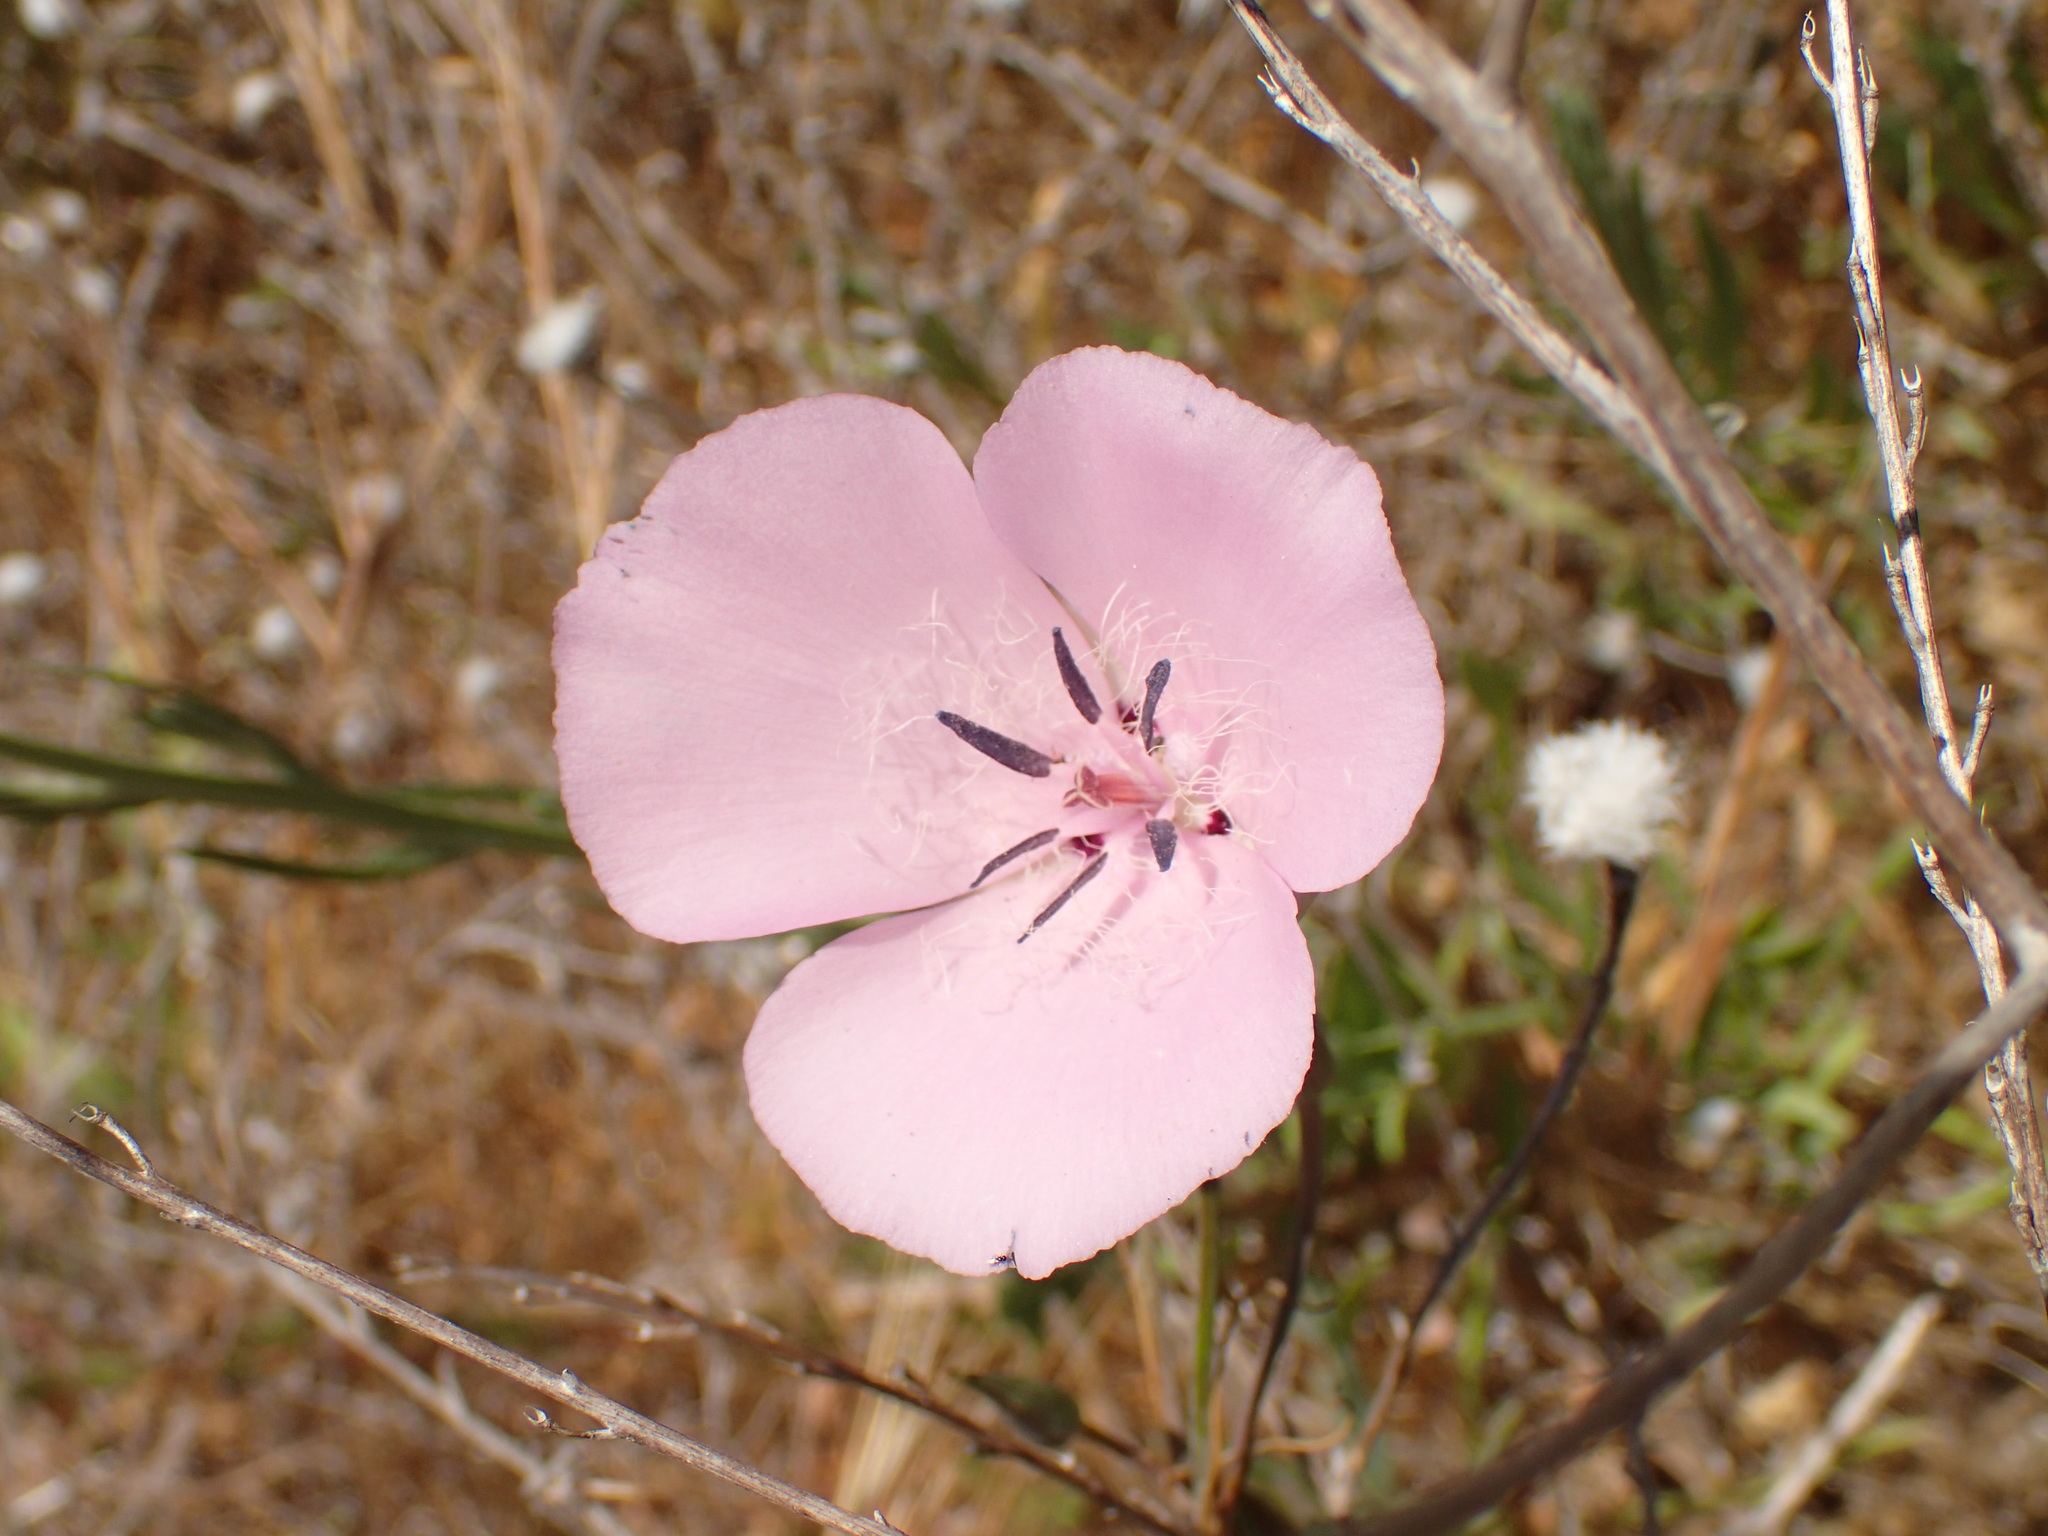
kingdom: Plantae
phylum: Tracheophyta
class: Liliopsida
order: Liliales
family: Liliaceae
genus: Calochortus
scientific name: Calochortus splendens
